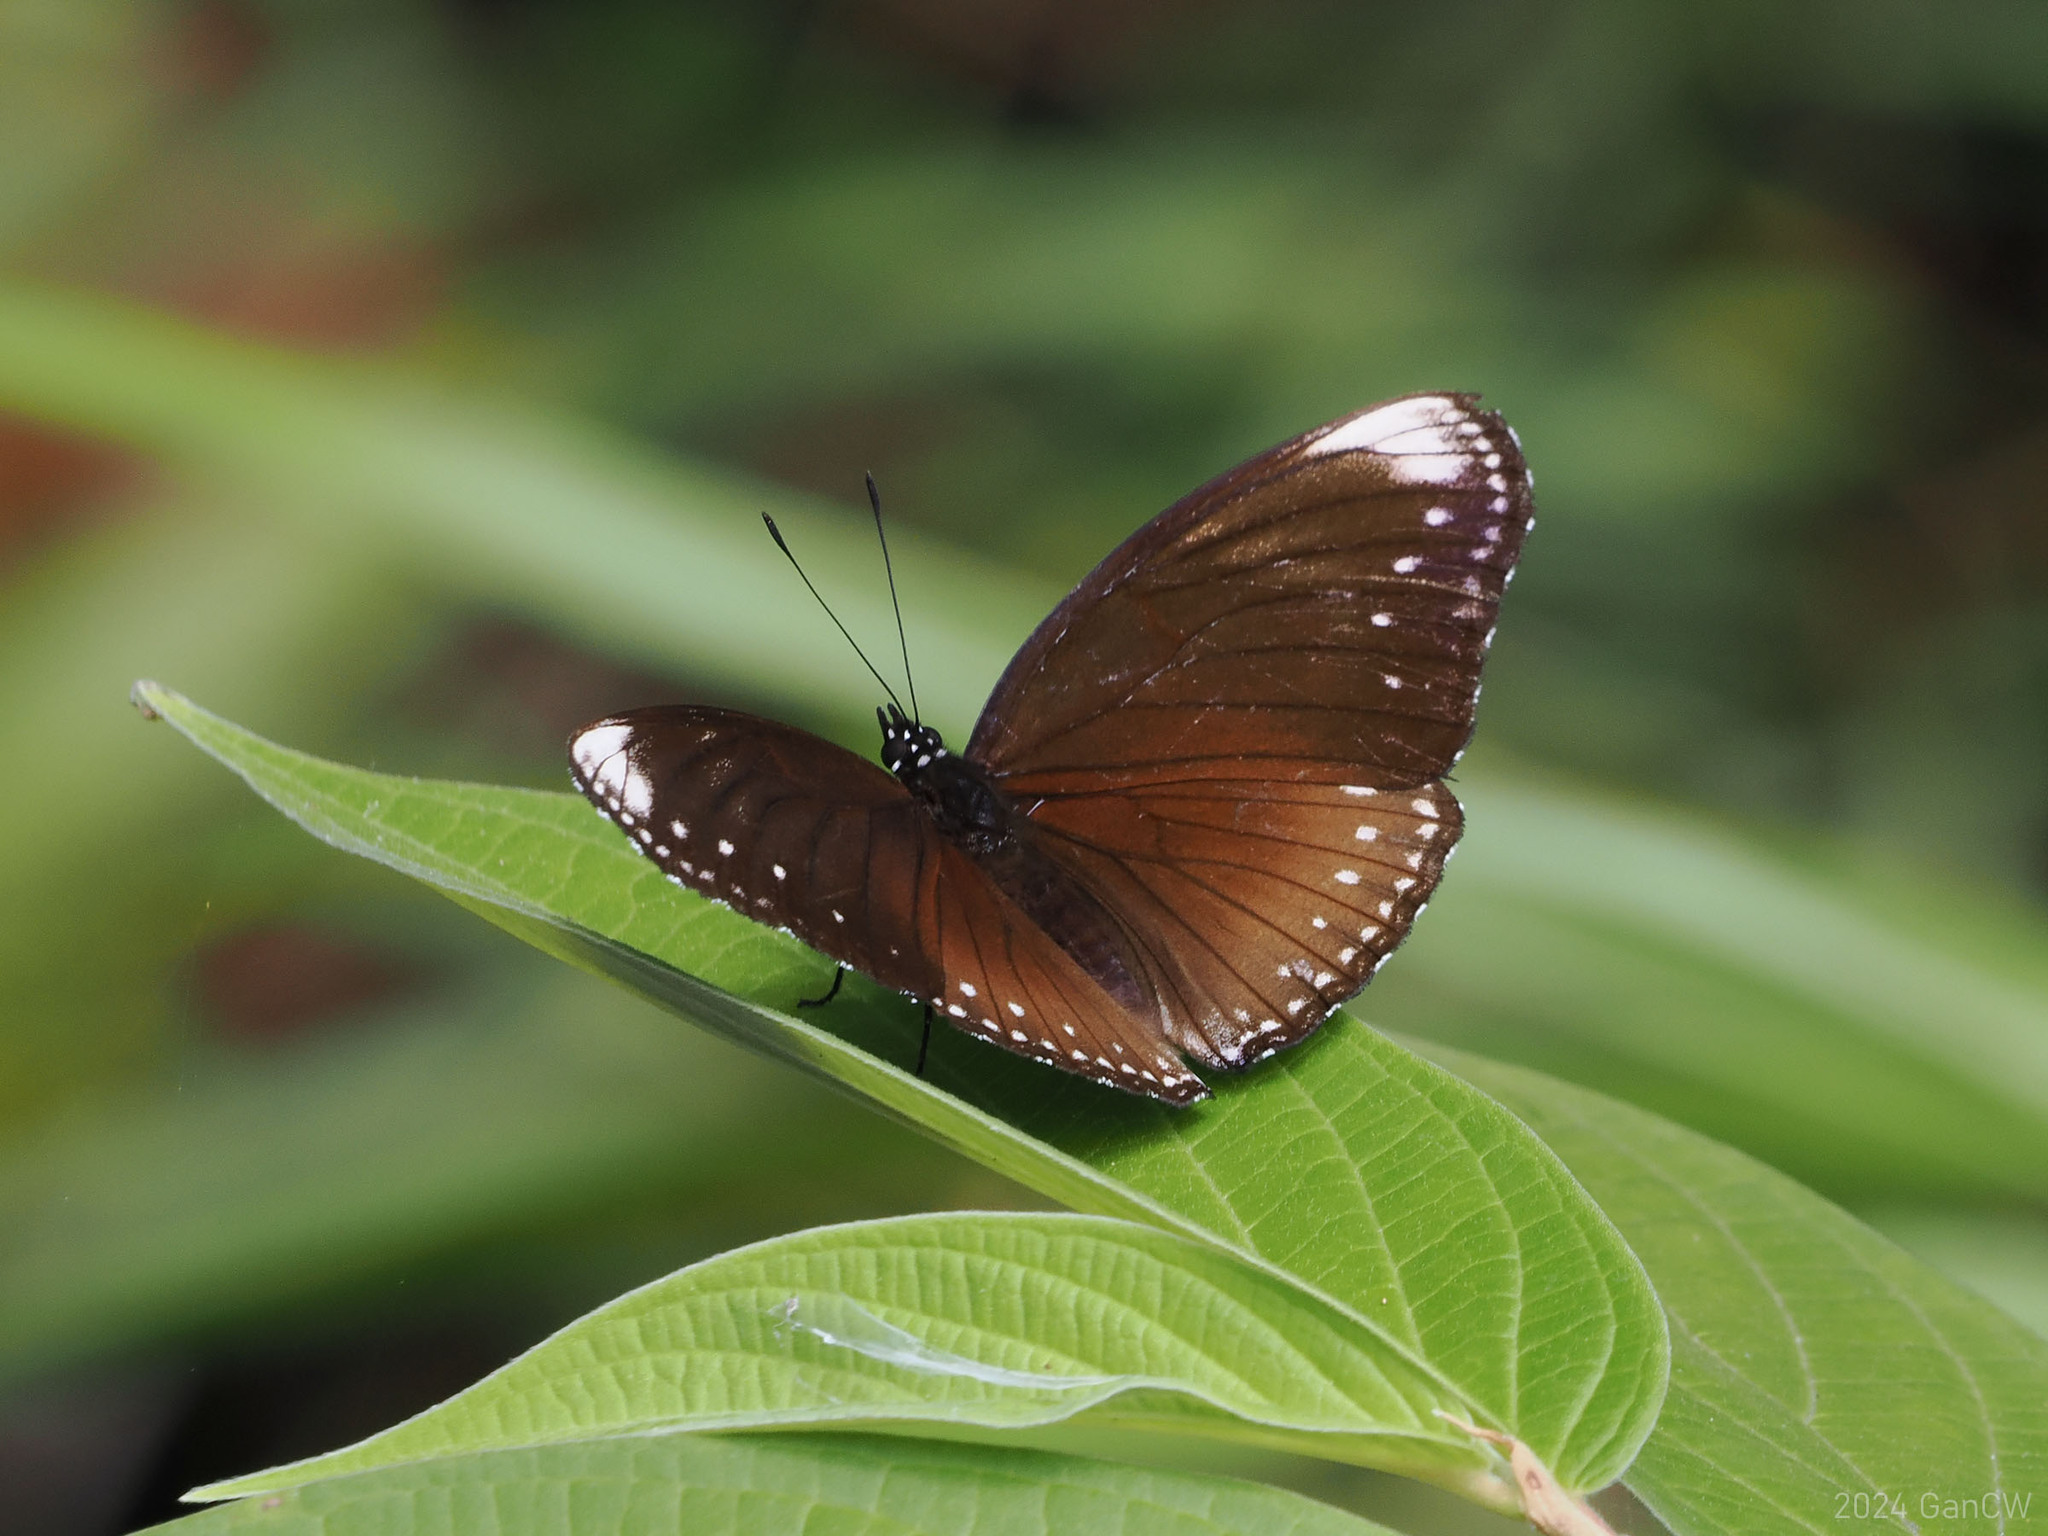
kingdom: Animalia
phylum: Arthropoda
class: Insecta
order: Lepidoptera
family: Nymphalidae
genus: Hypolimnas
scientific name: Hypolimnas anomala
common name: Malayan eggfly
